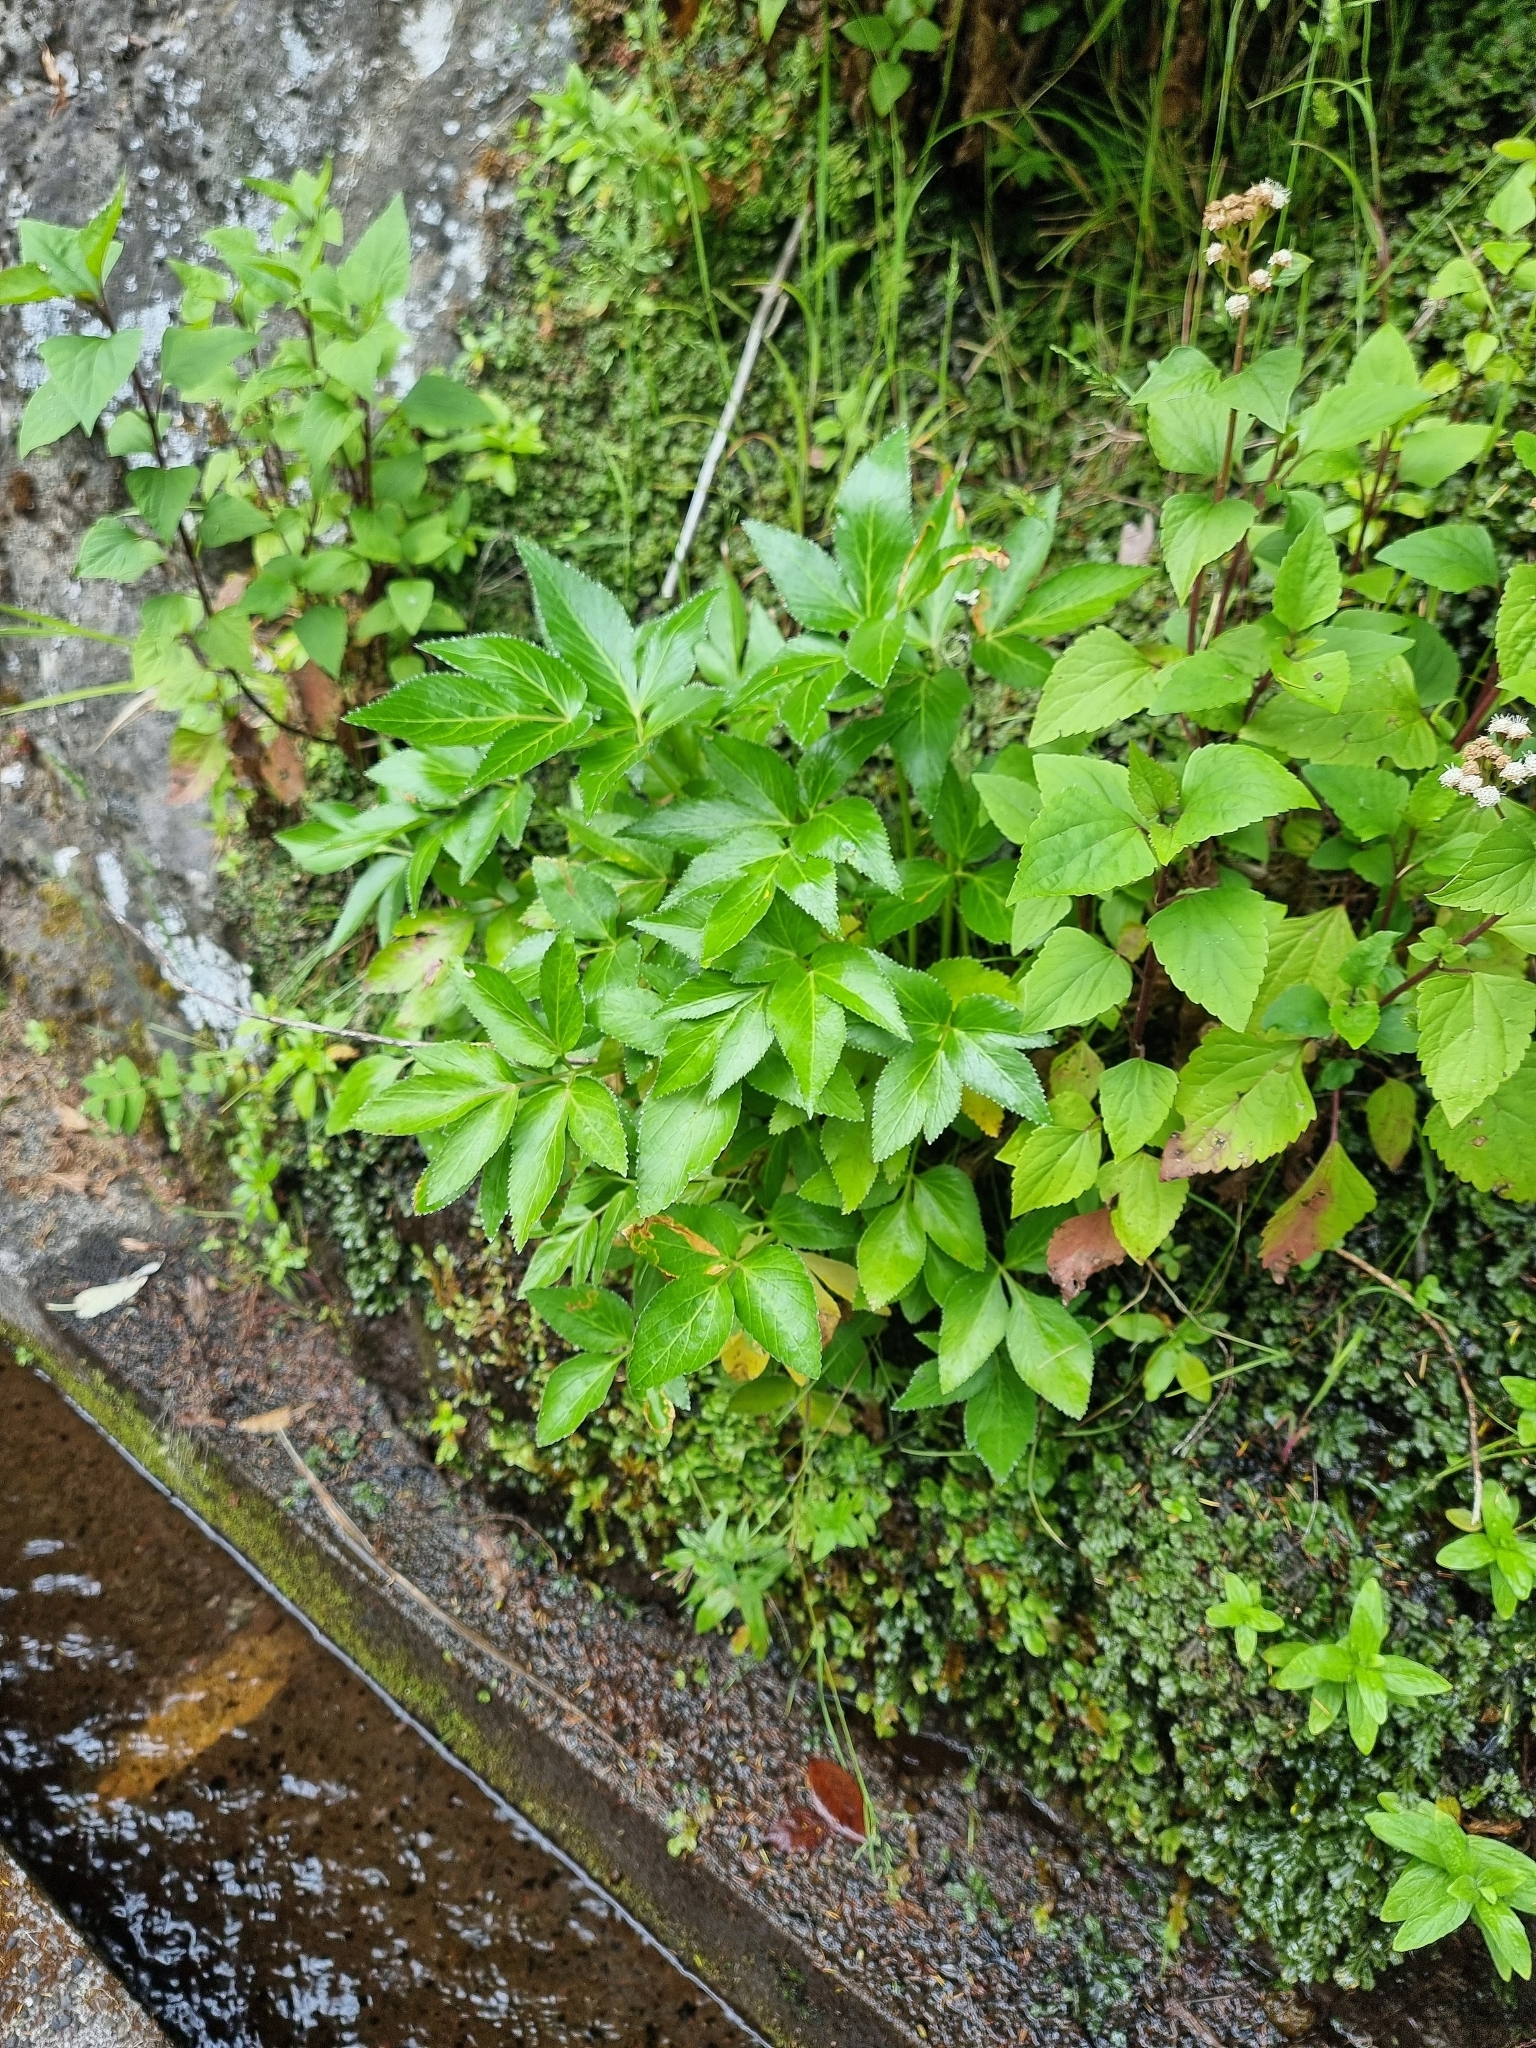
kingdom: Plantae
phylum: Tracheophyta
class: Magnoliopsida
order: Apiales
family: Apiaceae
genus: Imperatoria
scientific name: Imperatoria lowei
